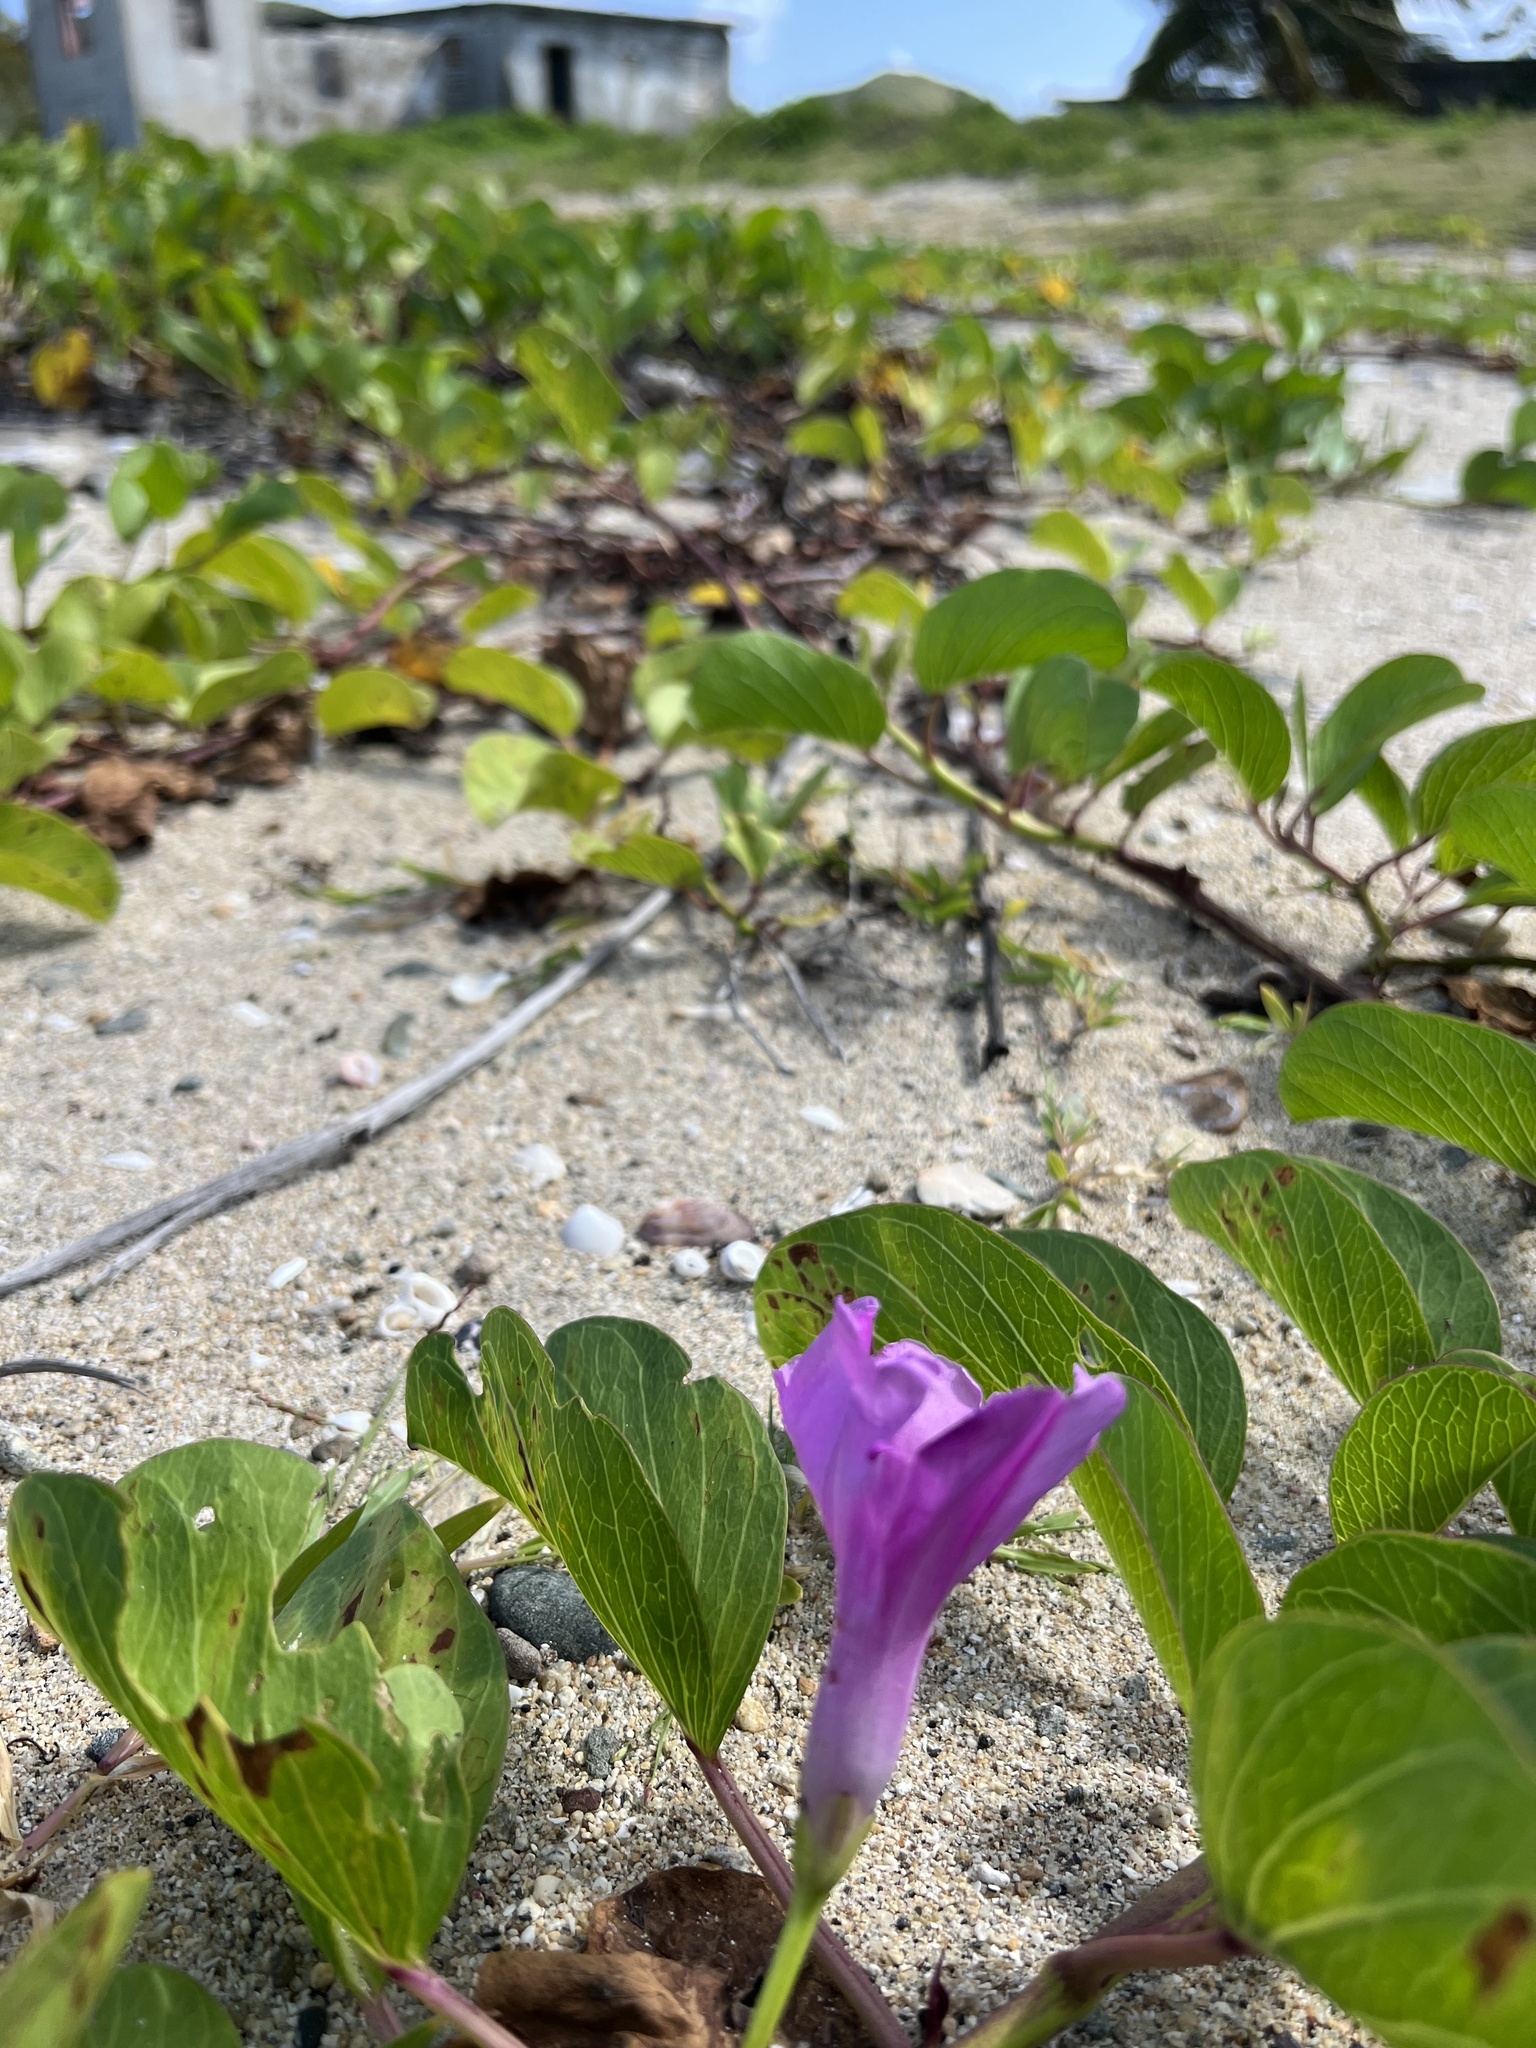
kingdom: Plantae
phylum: Tracheophyta
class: Magnoliopsida
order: Solanales
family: Convolvulaceae
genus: Ipomoea
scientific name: Ipomoea pes-caprae
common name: Beach morning glory
